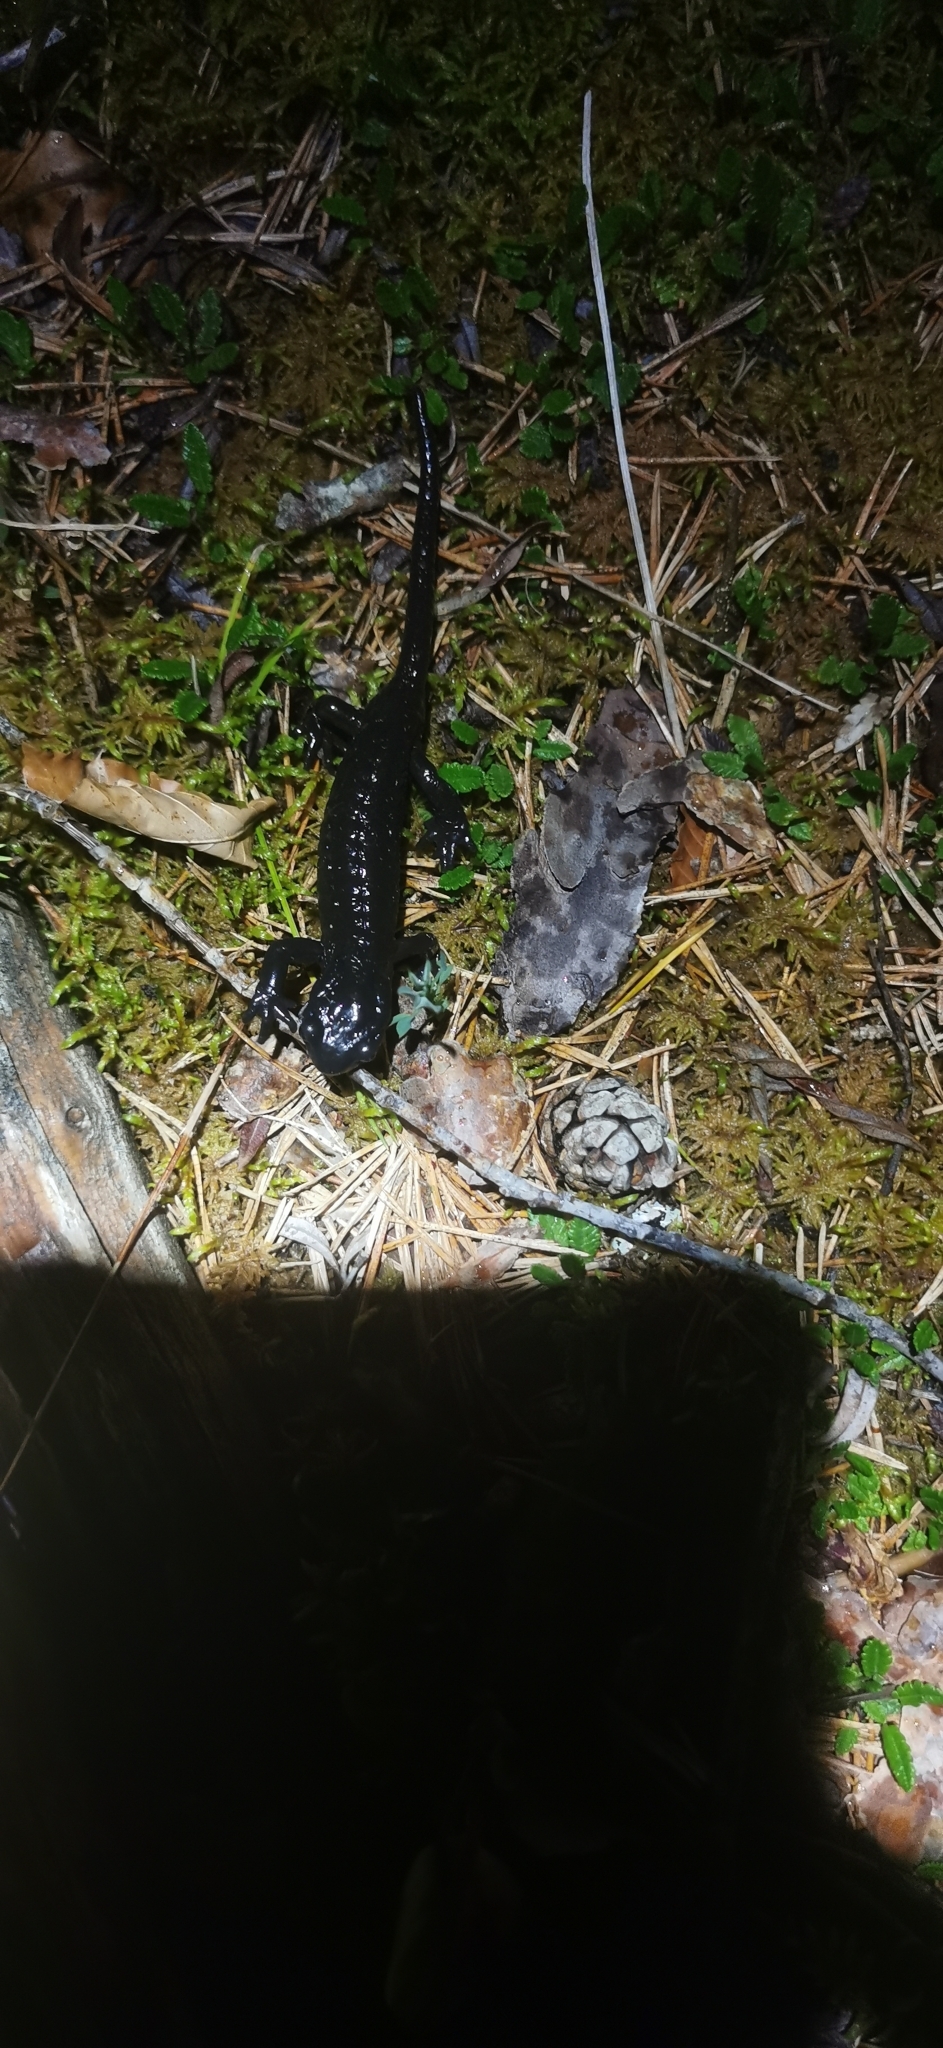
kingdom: Animalia
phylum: Chordata
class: Amphibia
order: Caudata
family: Salamandridae
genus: Salamandra
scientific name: Salamandra atra
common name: Alpine salamander
